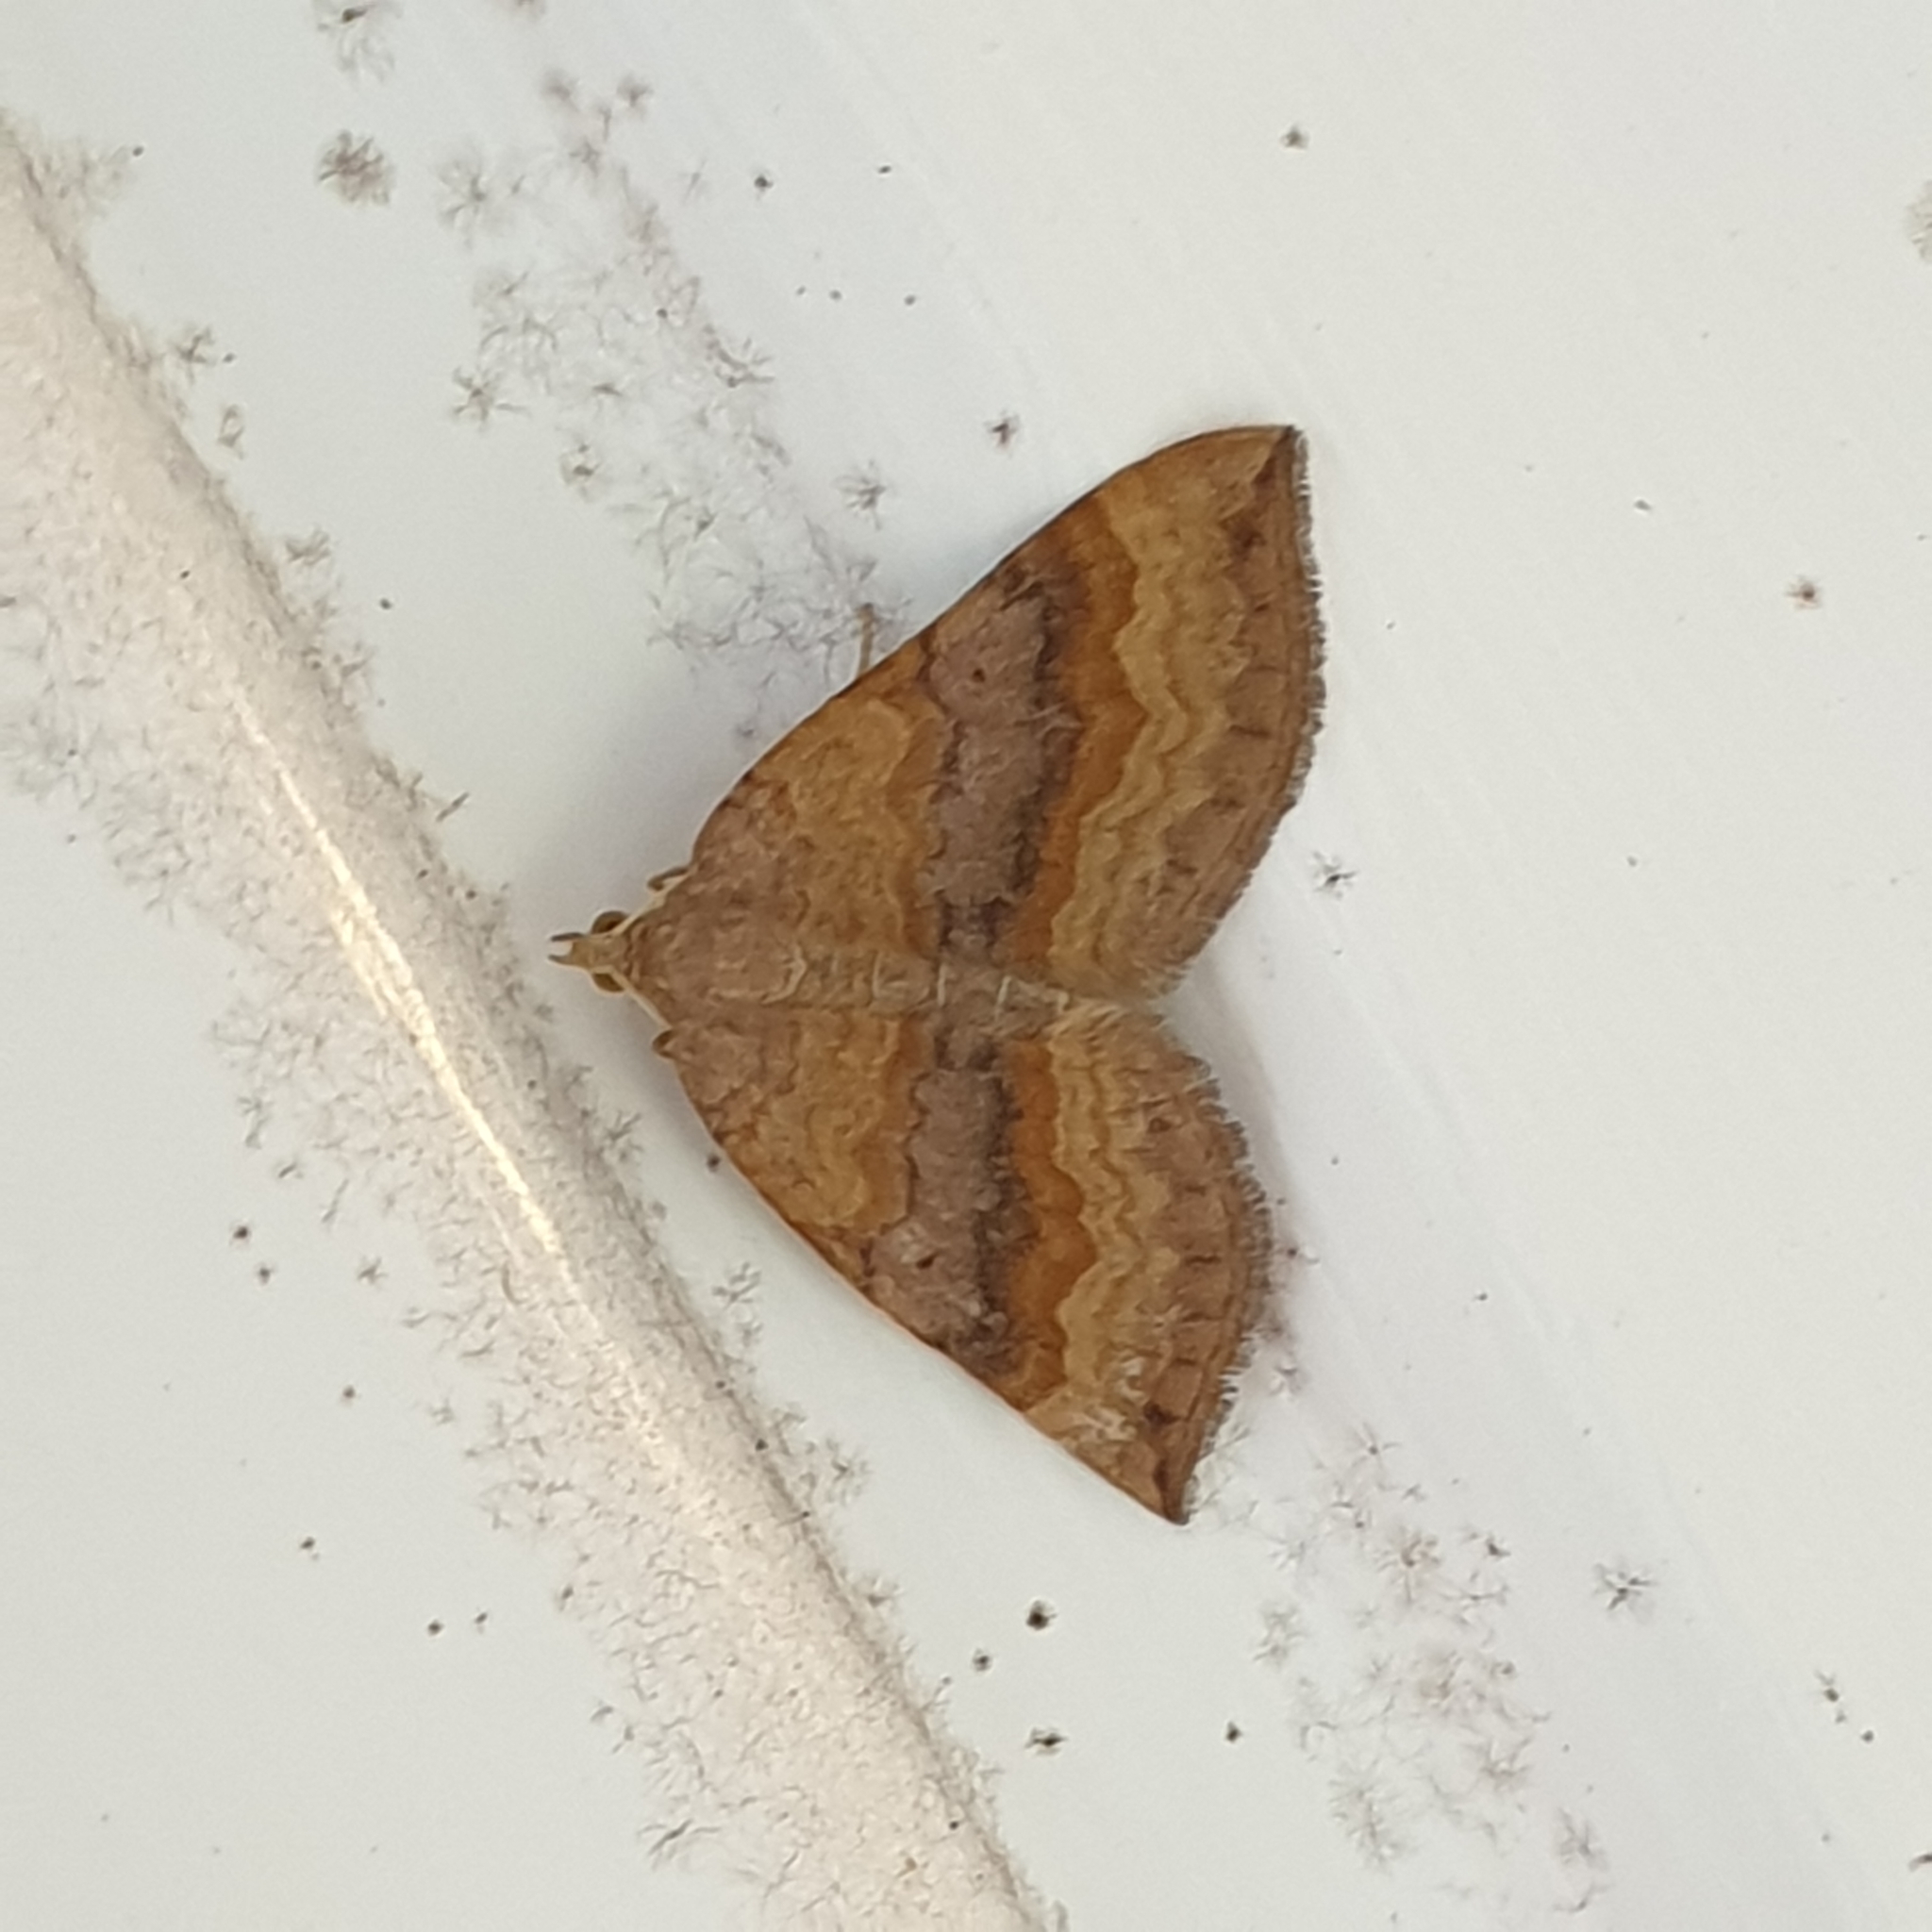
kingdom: Animalia
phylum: Arthropoda
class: Insecta
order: Lepidoptera
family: Geometridae
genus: Scotopteryx
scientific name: Scotopteryx chenopodiata
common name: Shaded broad-bar
